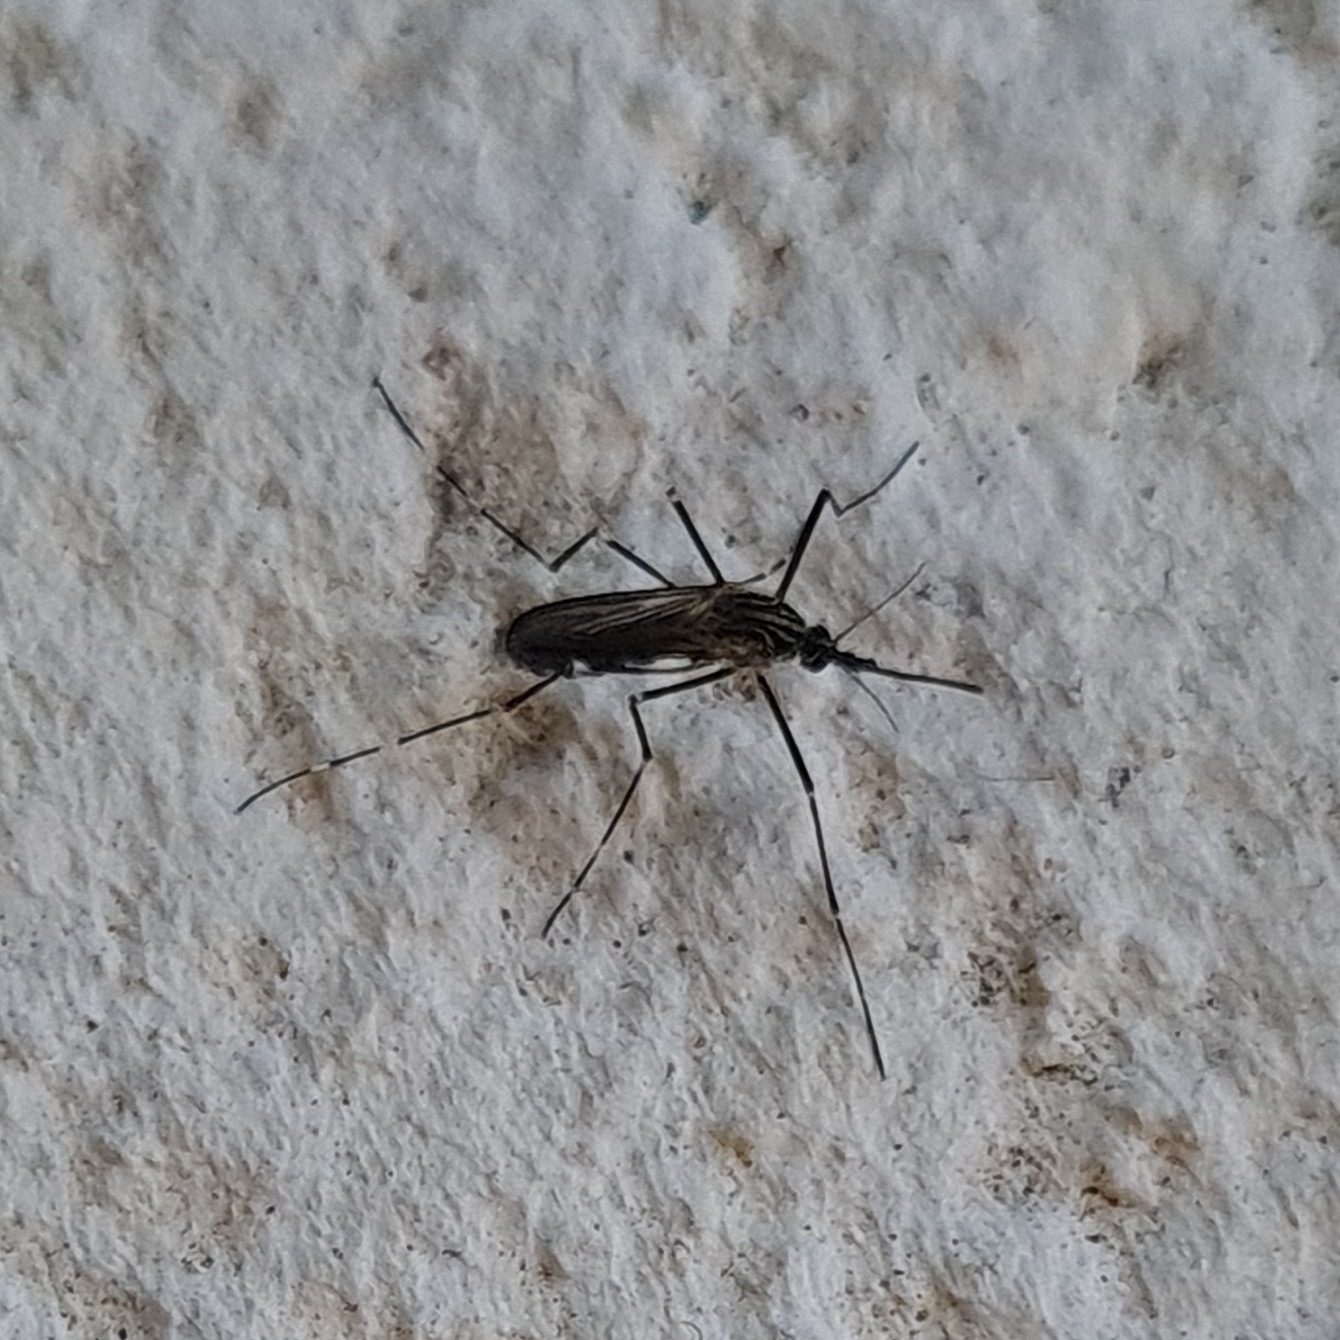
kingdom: Animalia
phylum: Arthropoda
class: Insecta
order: Diptera
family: Culicidae
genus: Aedes
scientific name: Aedes japonicus
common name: Asian bush mosquito
